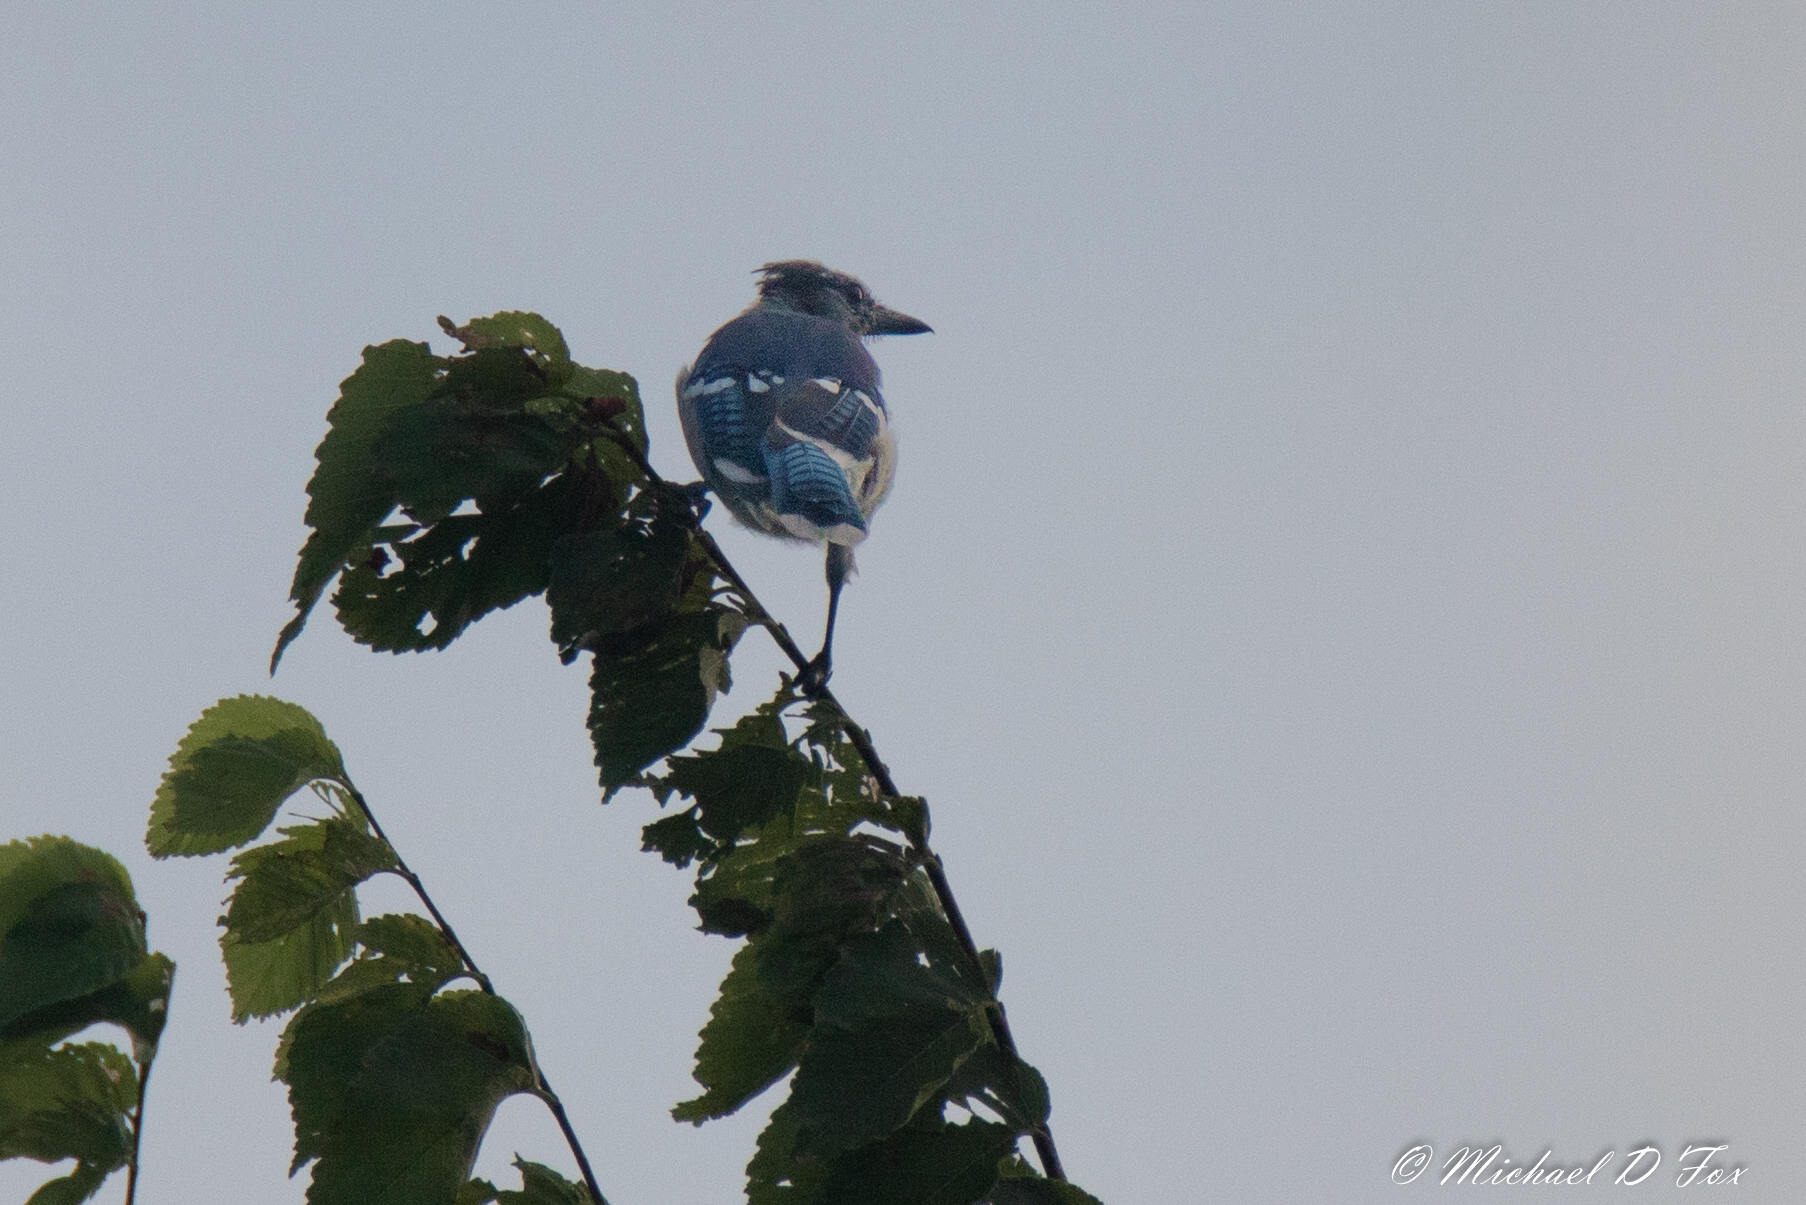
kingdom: Animalia
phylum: Chordata
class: Aves
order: Passeriformes
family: Corvidae
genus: Cyanocitta
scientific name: Cyanocitta cristata
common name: Blue jay
